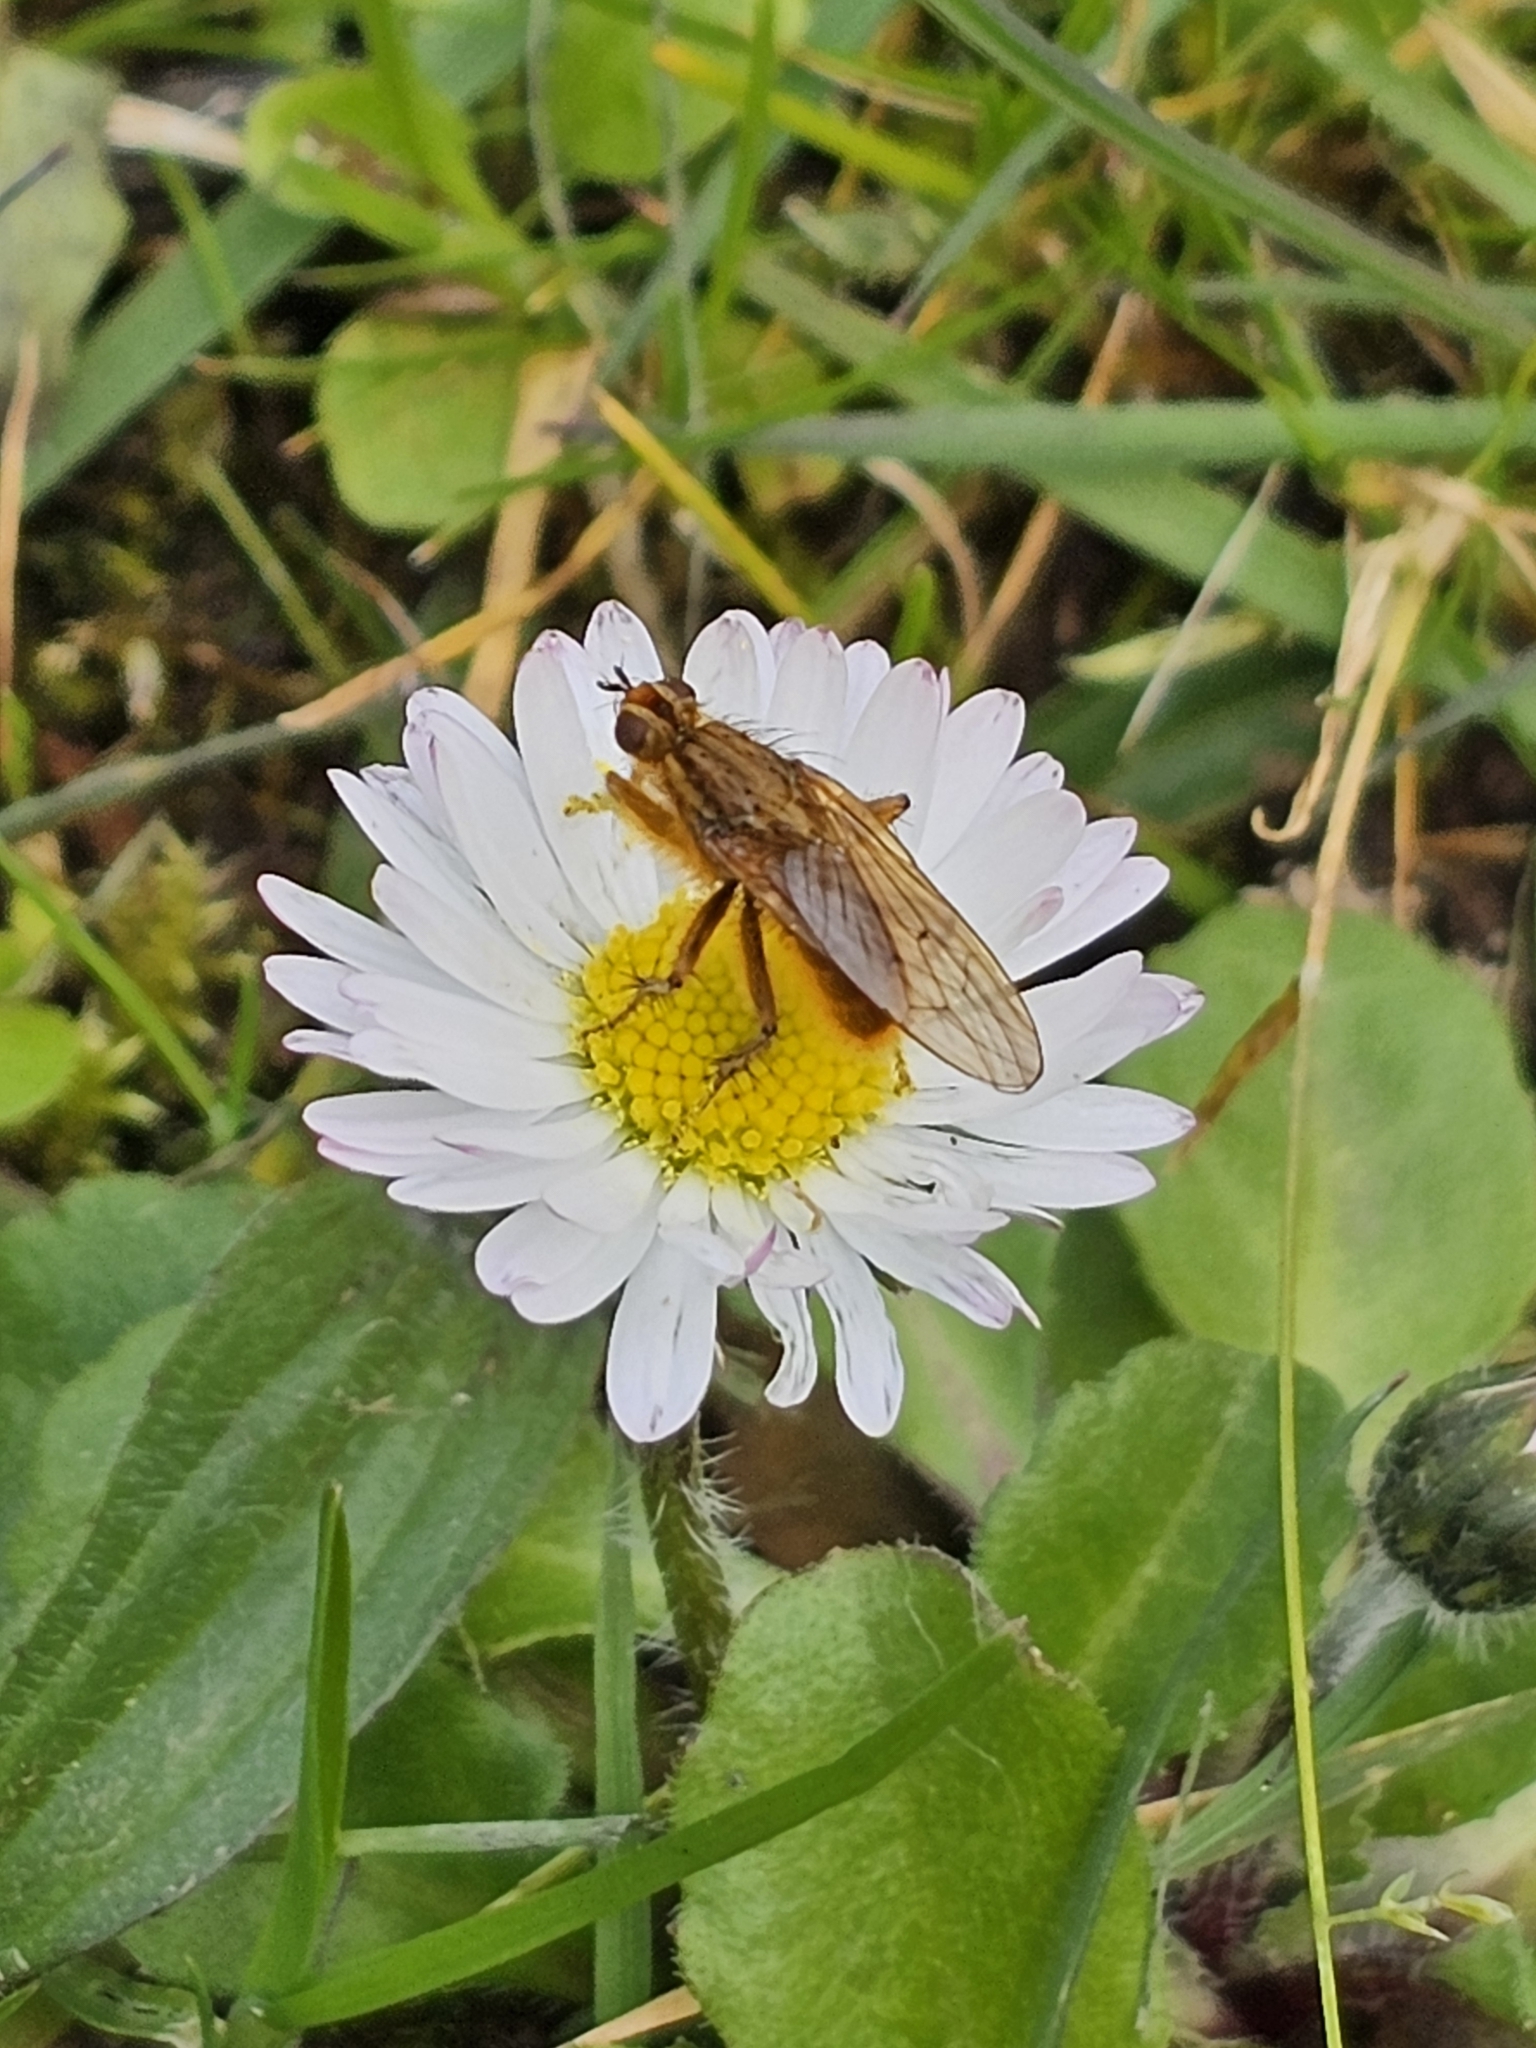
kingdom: Animalia
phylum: Arthropoda
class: Insecta
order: Diptera
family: Scathophagidae
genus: Scathophaga
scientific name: Scathophaga stercoraria
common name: Yellow dung fly
